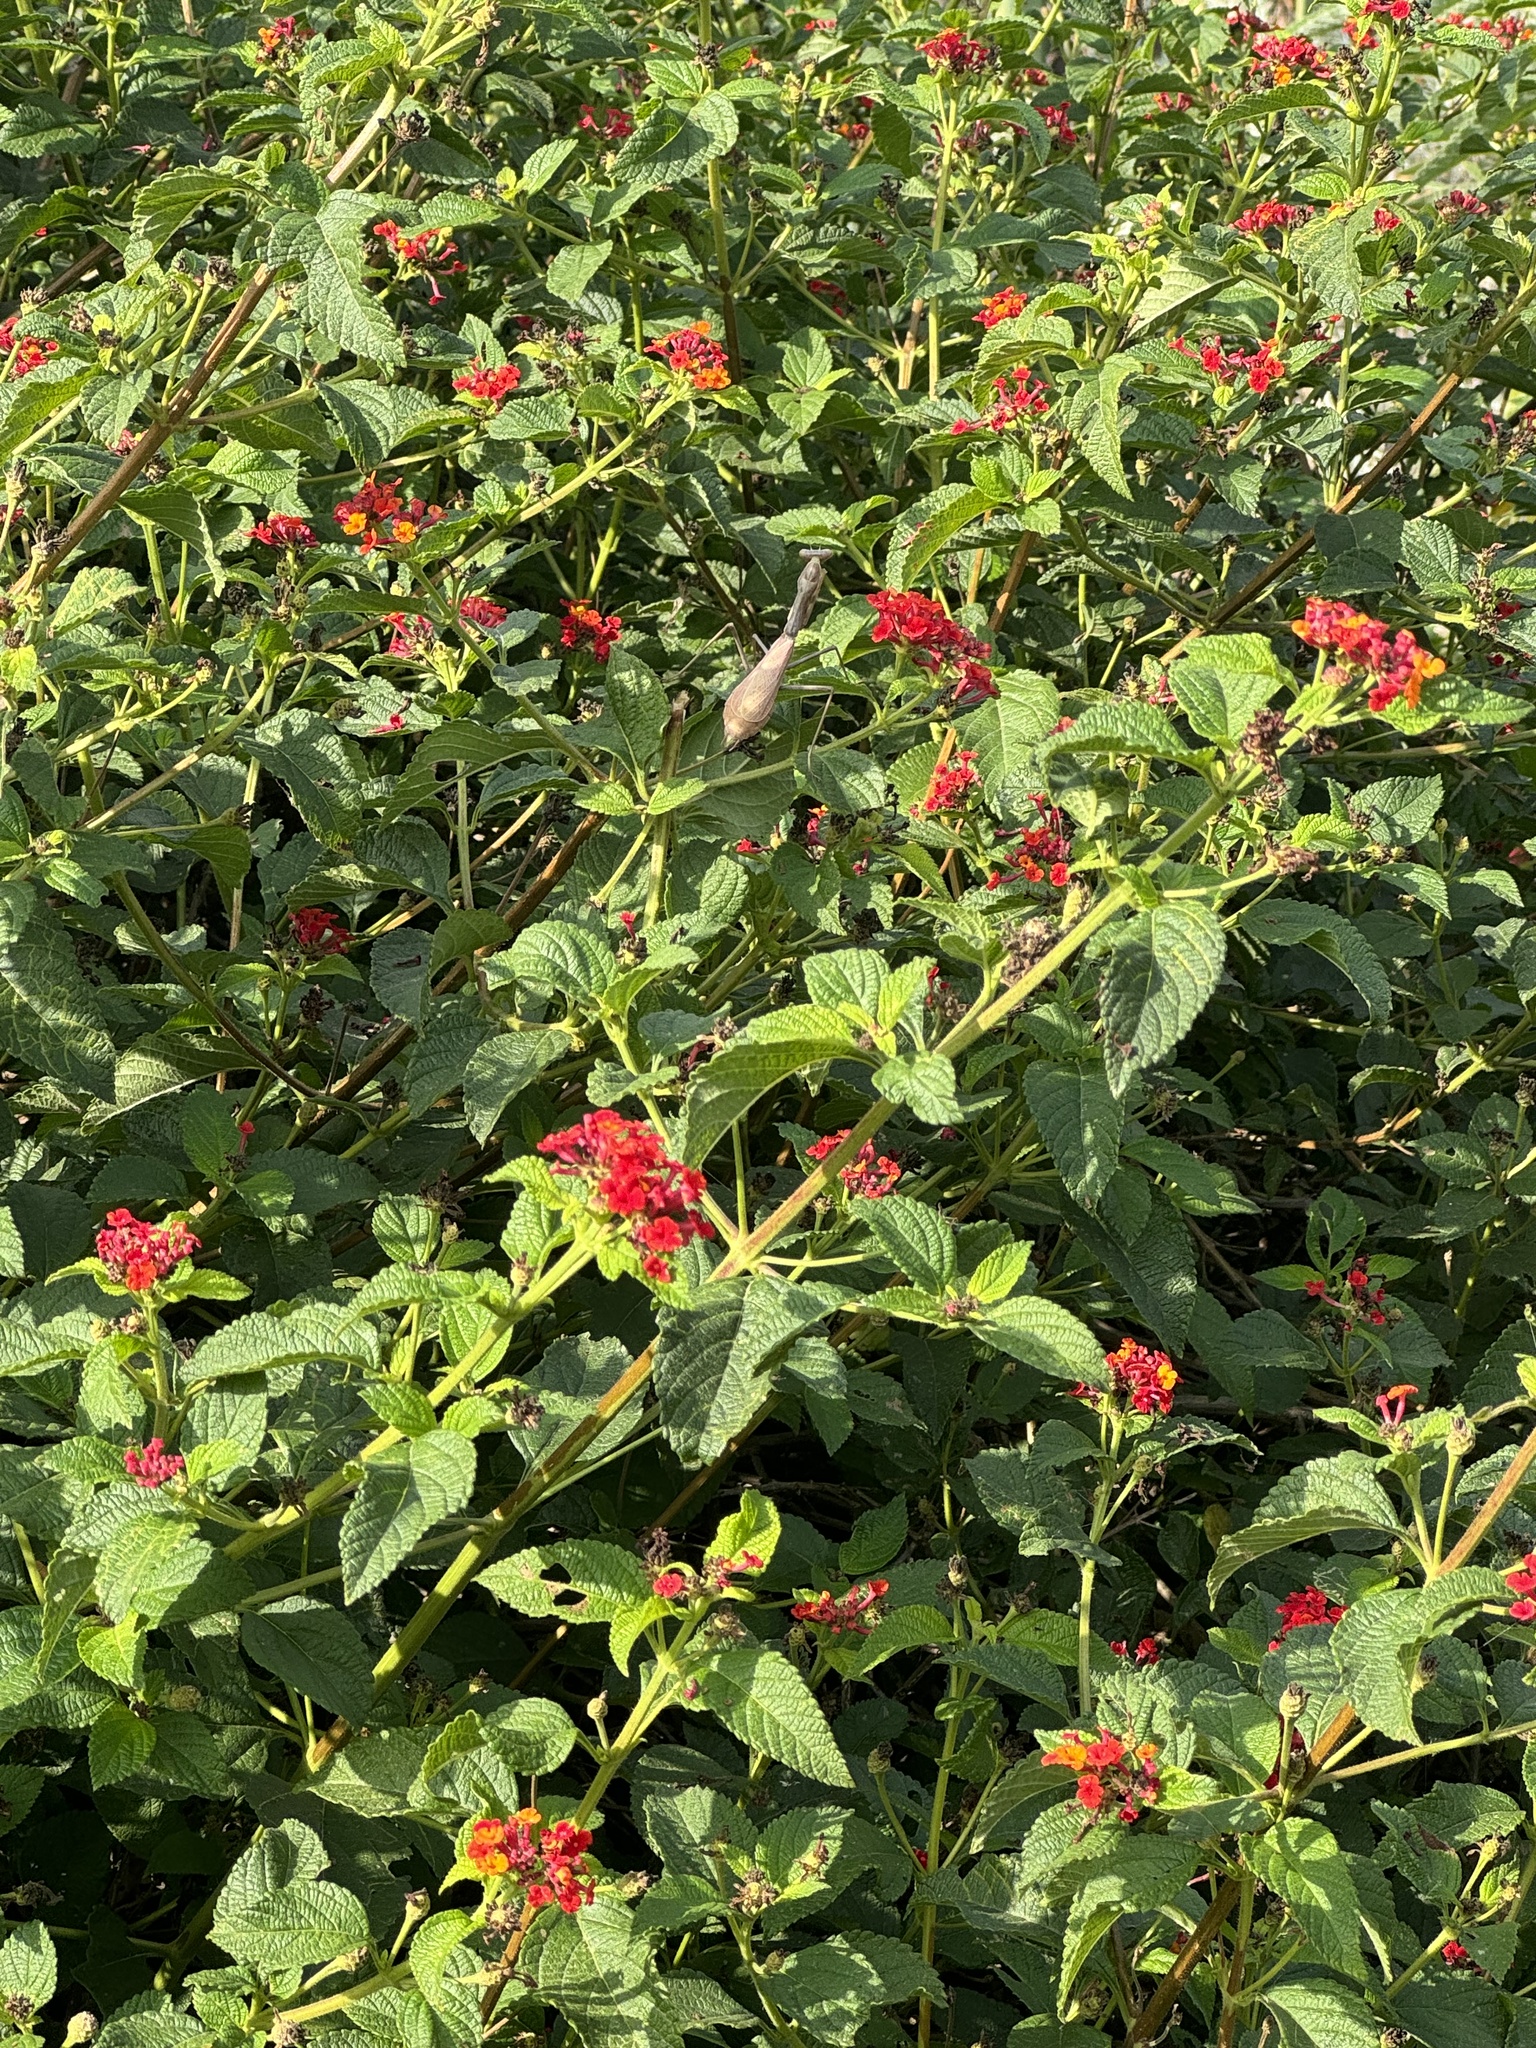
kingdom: Animalia
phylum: Arthropoda
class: Insecta
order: Mantodea
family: Mantidae
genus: Stagmomantis
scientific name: Stagmomantis limbata
